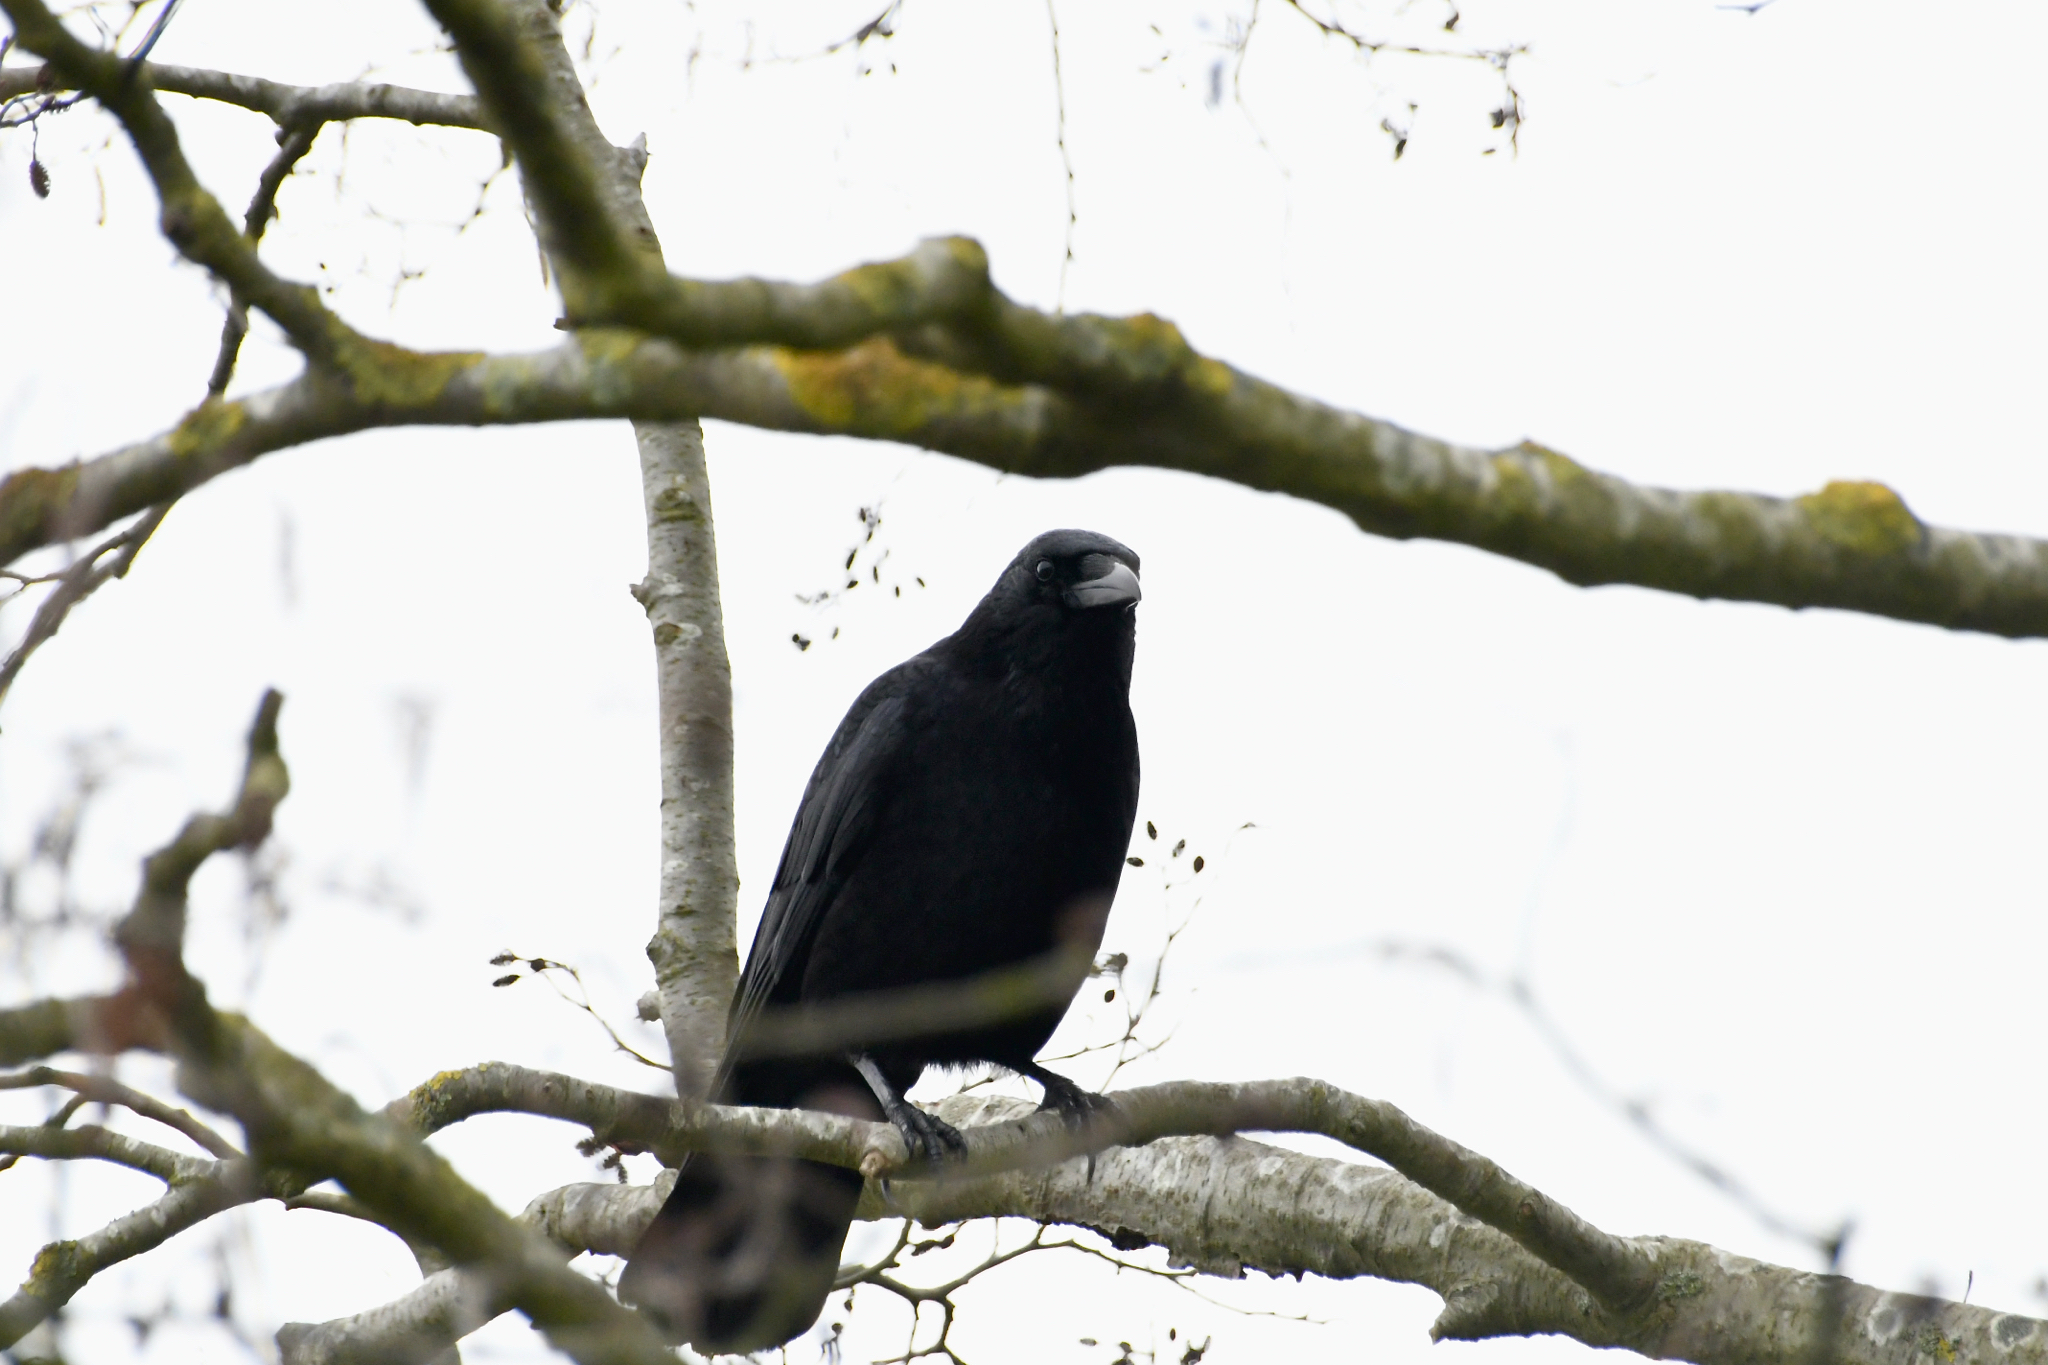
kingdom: Animalia
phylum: Chordata
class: Aves
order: Passeriformes
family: Corvidae
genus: Corvus
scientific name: Corvus corone
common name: Carrion crow
